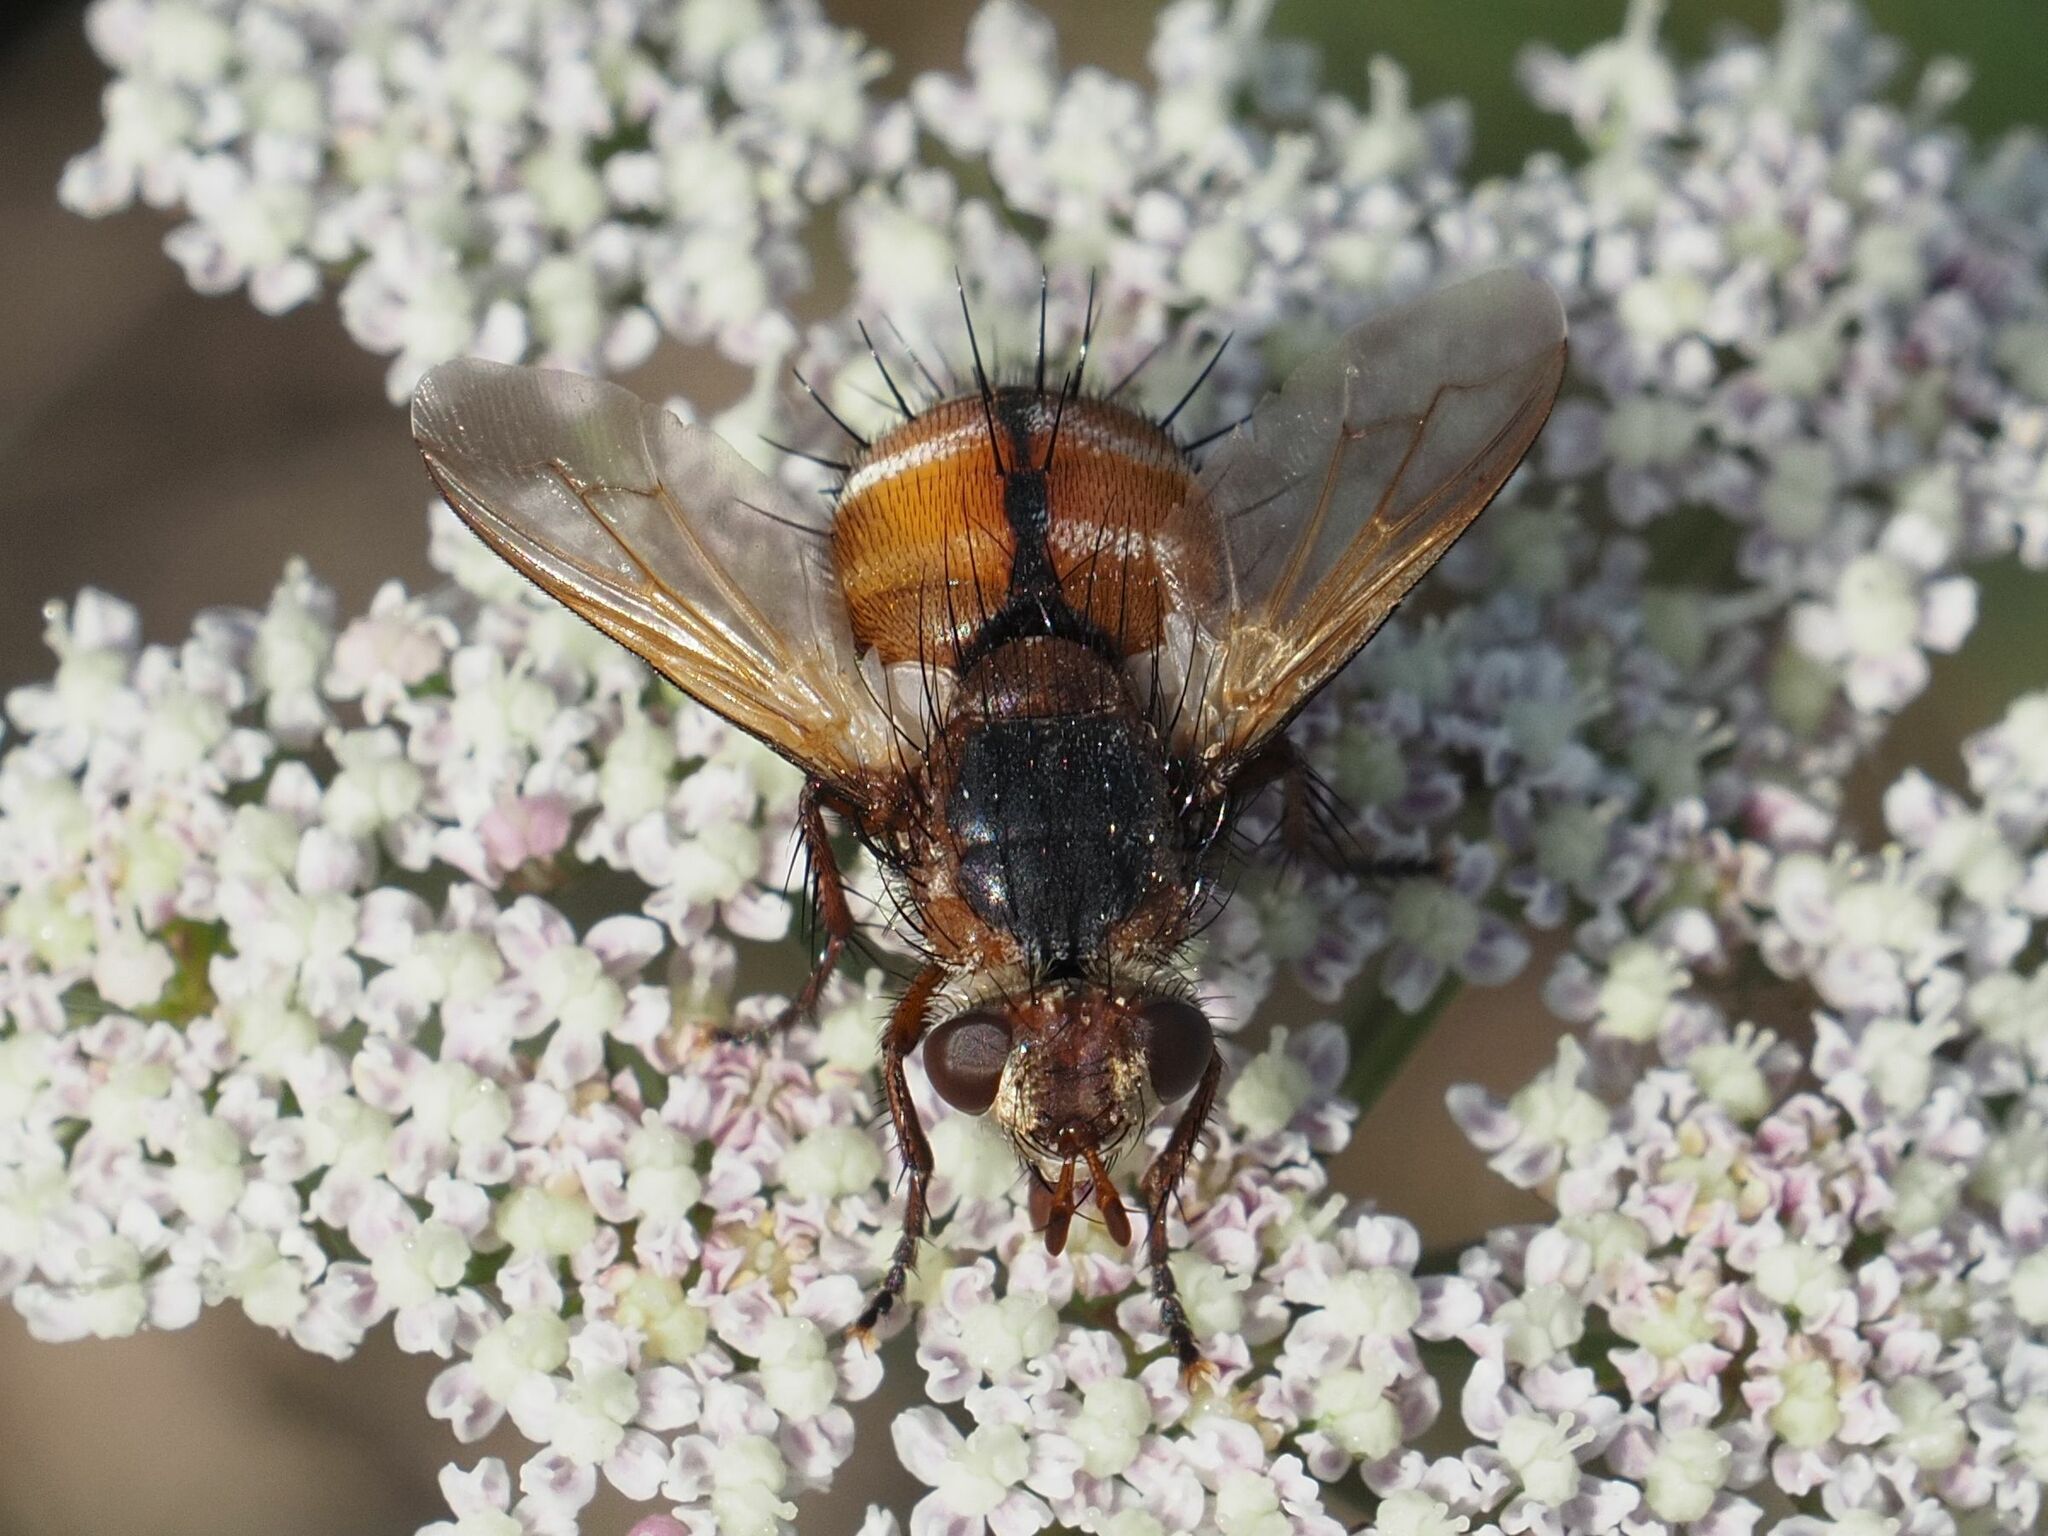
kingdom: Animalia
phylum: Arthropoda
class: Insecta
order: Diptera
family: Tachinidae
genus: Tachina
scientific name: Tachina fera
